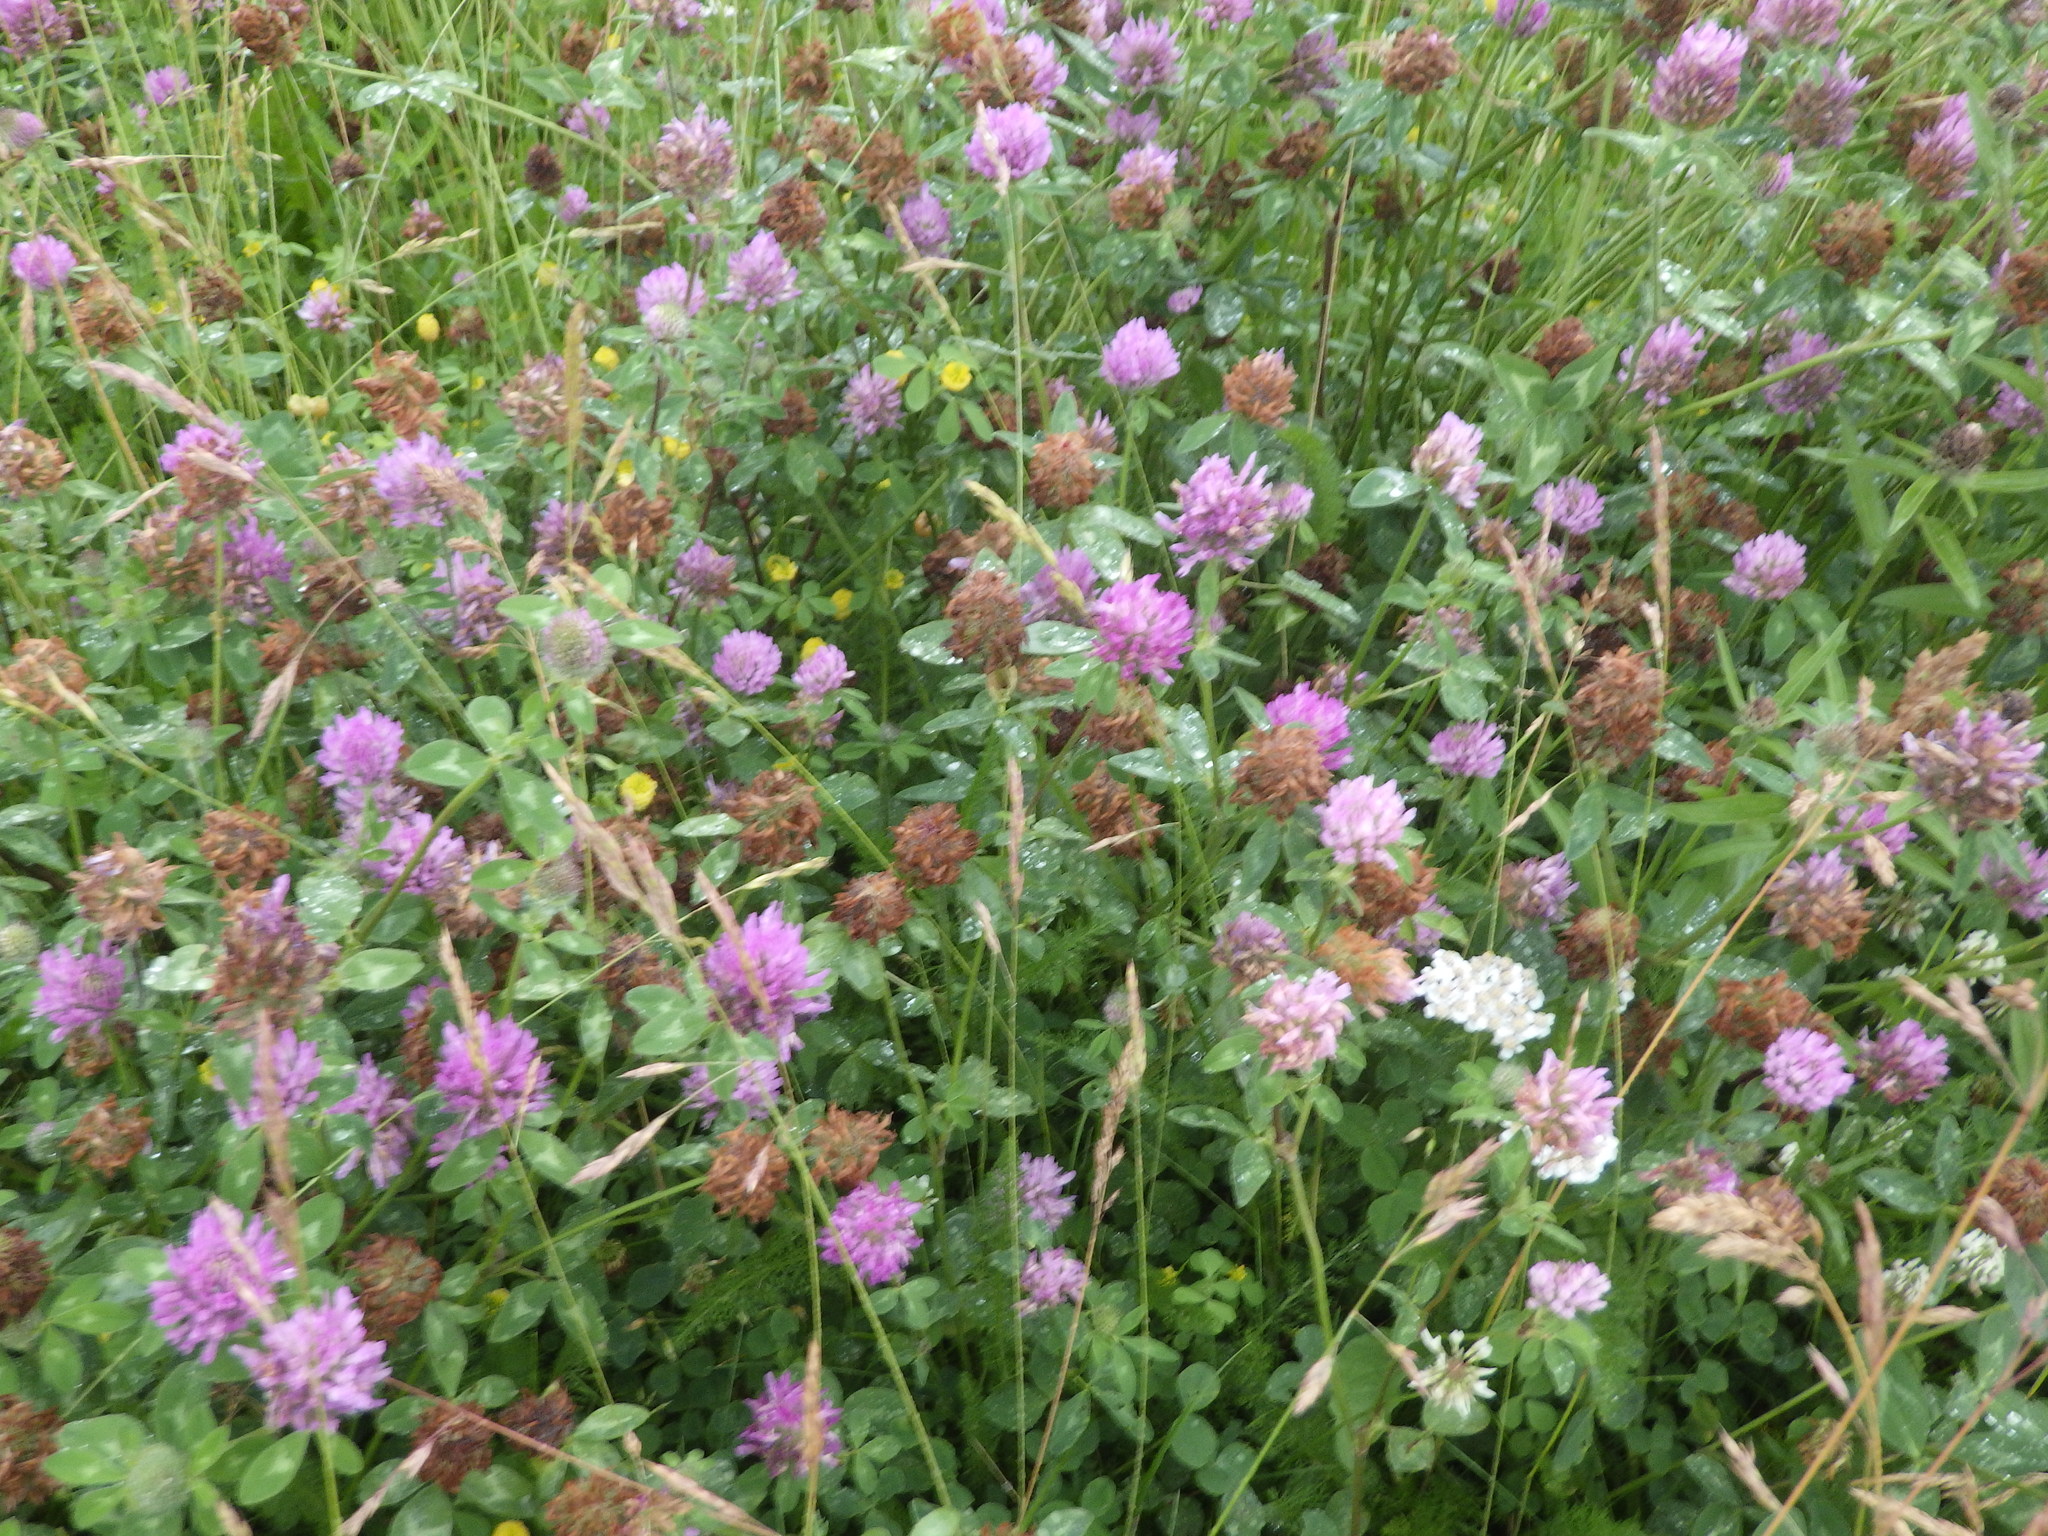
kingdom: Plantae
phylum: Tracheophyta
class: Magnoliopsida
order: Fabales
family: Fabaceae
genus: Trifolium
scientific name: Trifolium pratense
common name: Red clover
